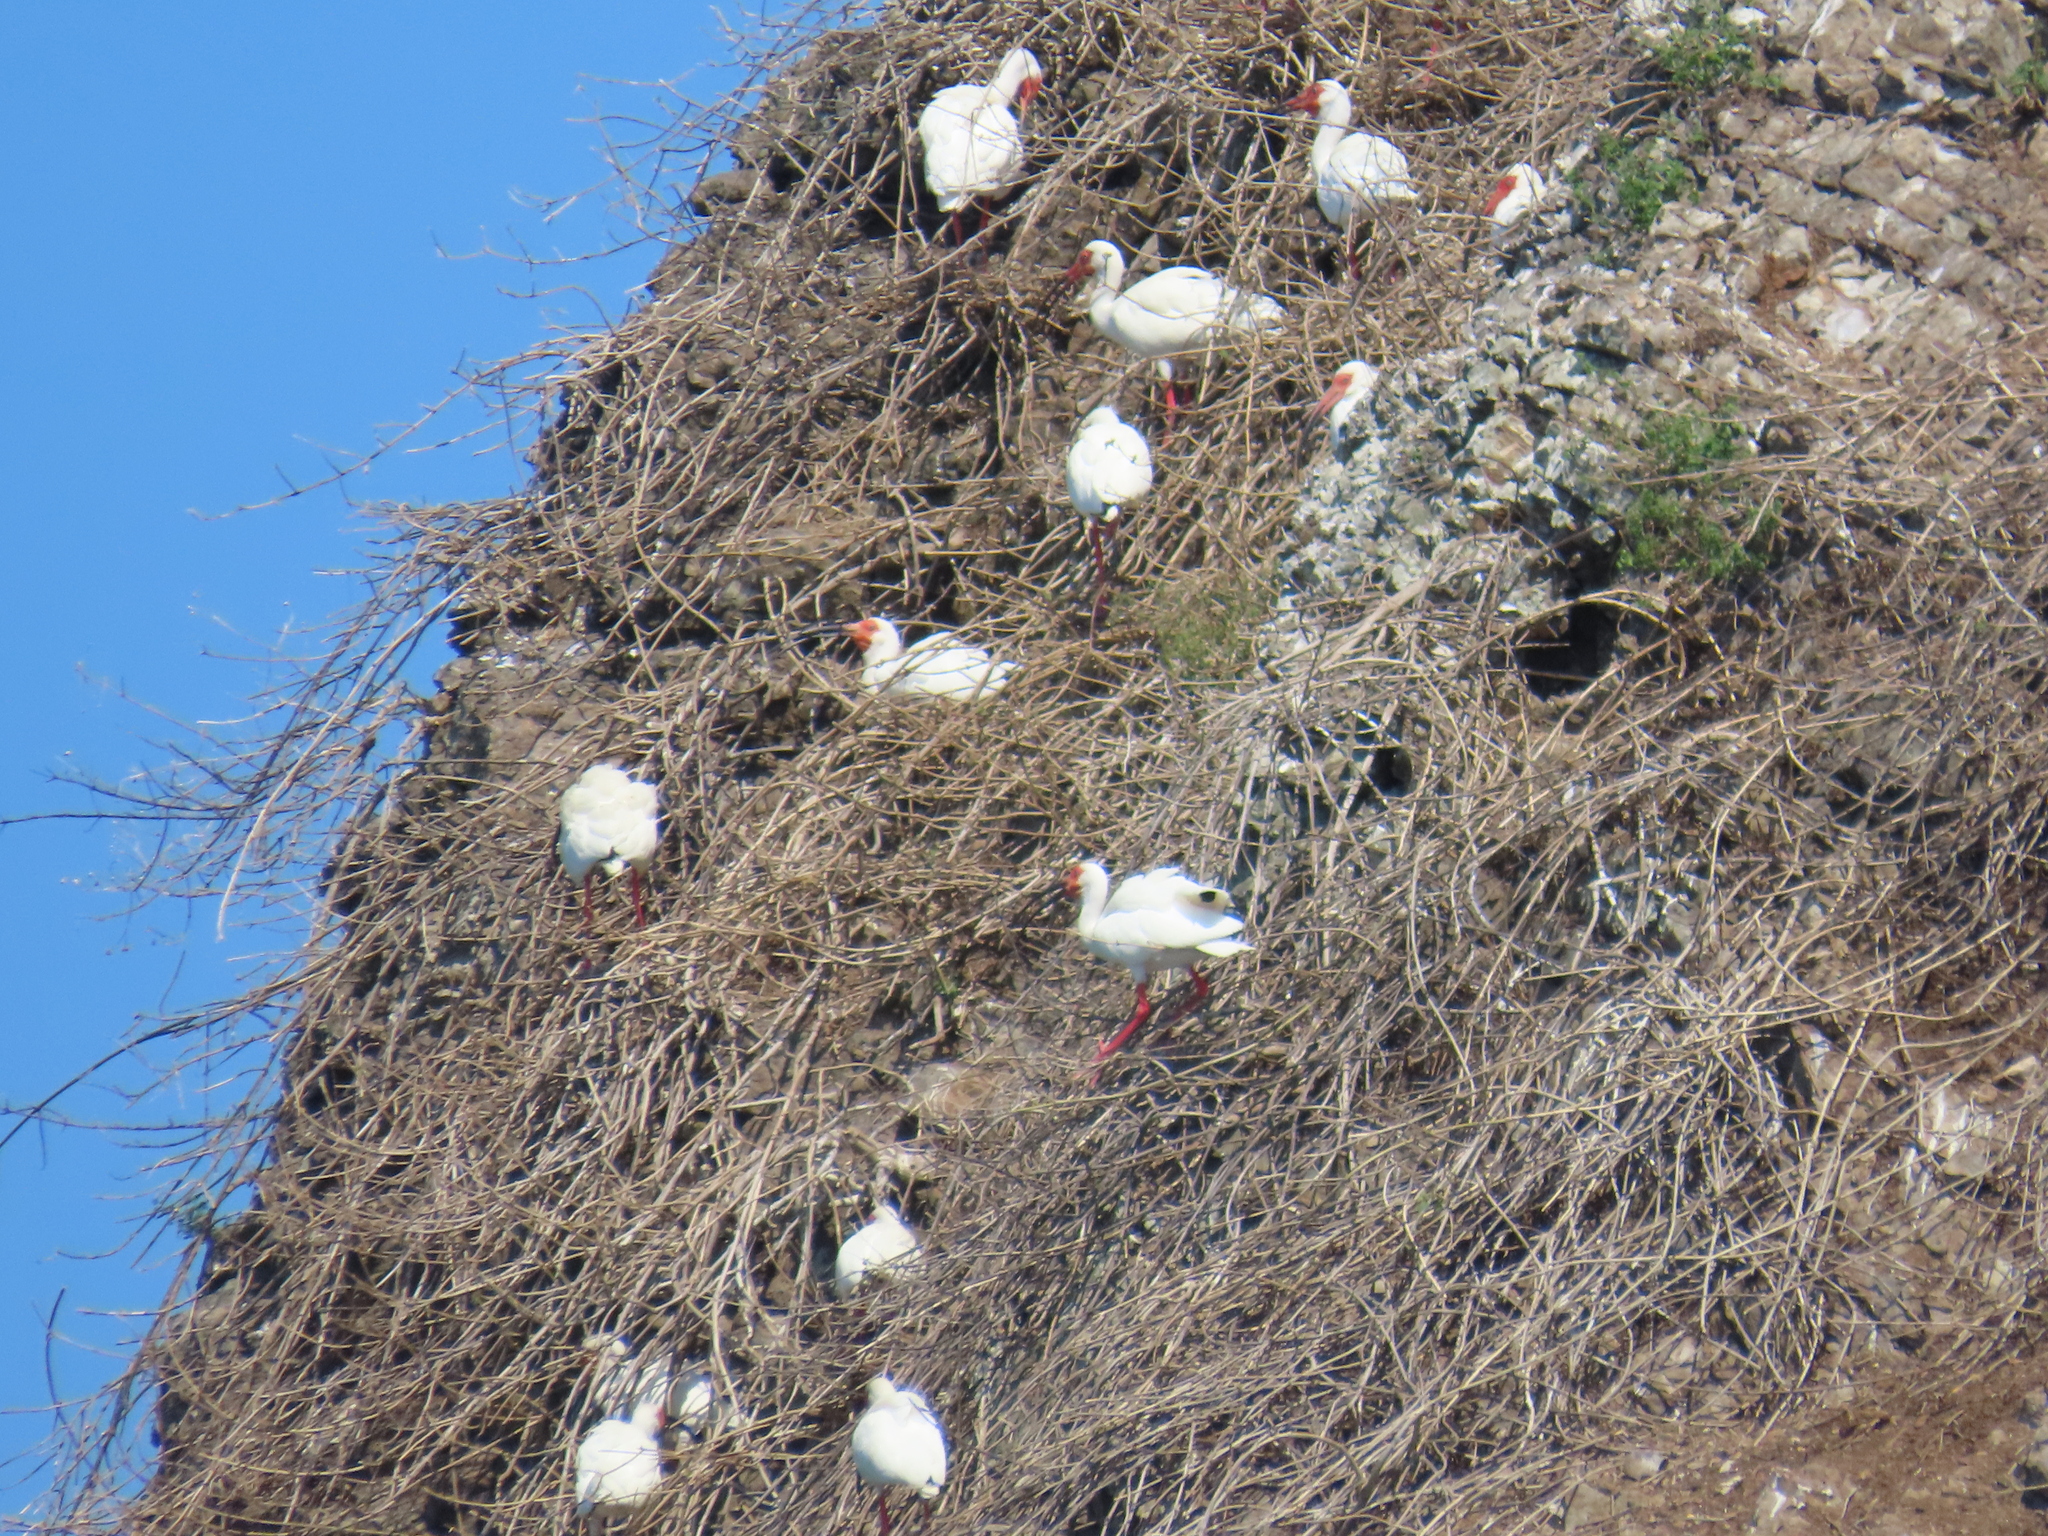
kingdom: Animalia
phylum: Chordata
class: Aves
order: Pelecaniformes
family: Threskiornithidae
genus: Eudocimus
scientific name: Eudocimus albus
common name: White ibis
